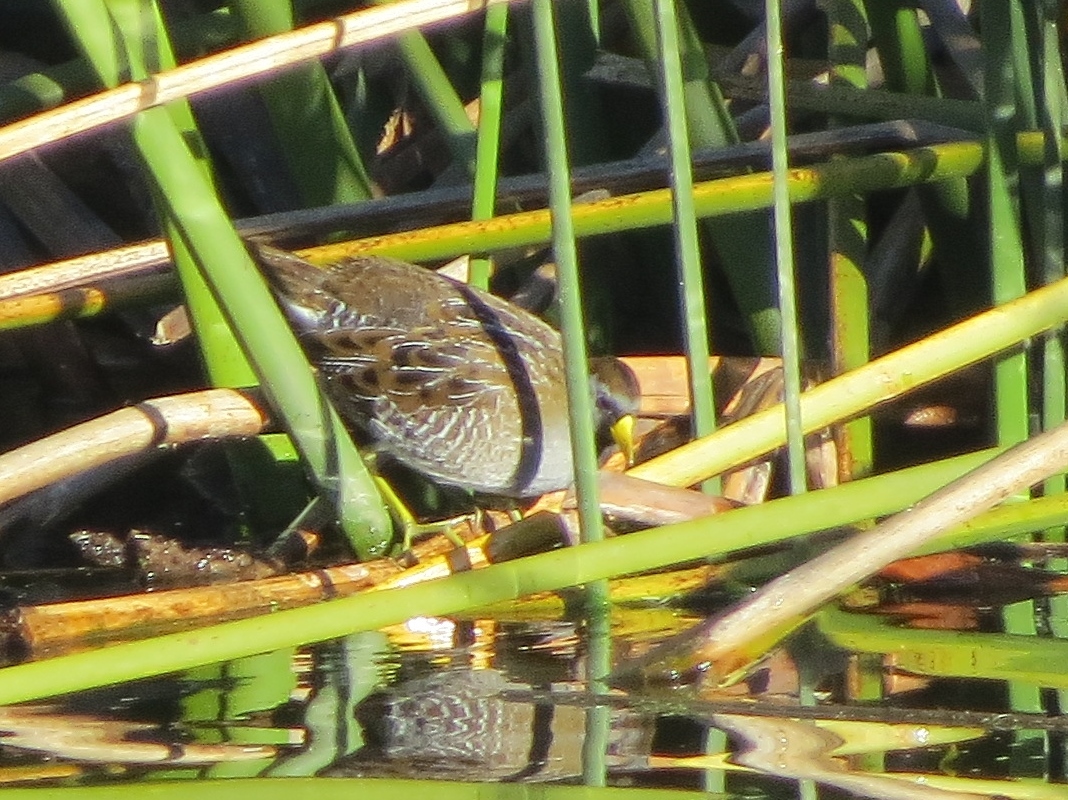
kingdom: Animalia
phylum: Chordata
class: Aves
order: Gruiformes
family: Rallidae
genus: Porzana
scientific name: Porzana carolina
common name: Sora
